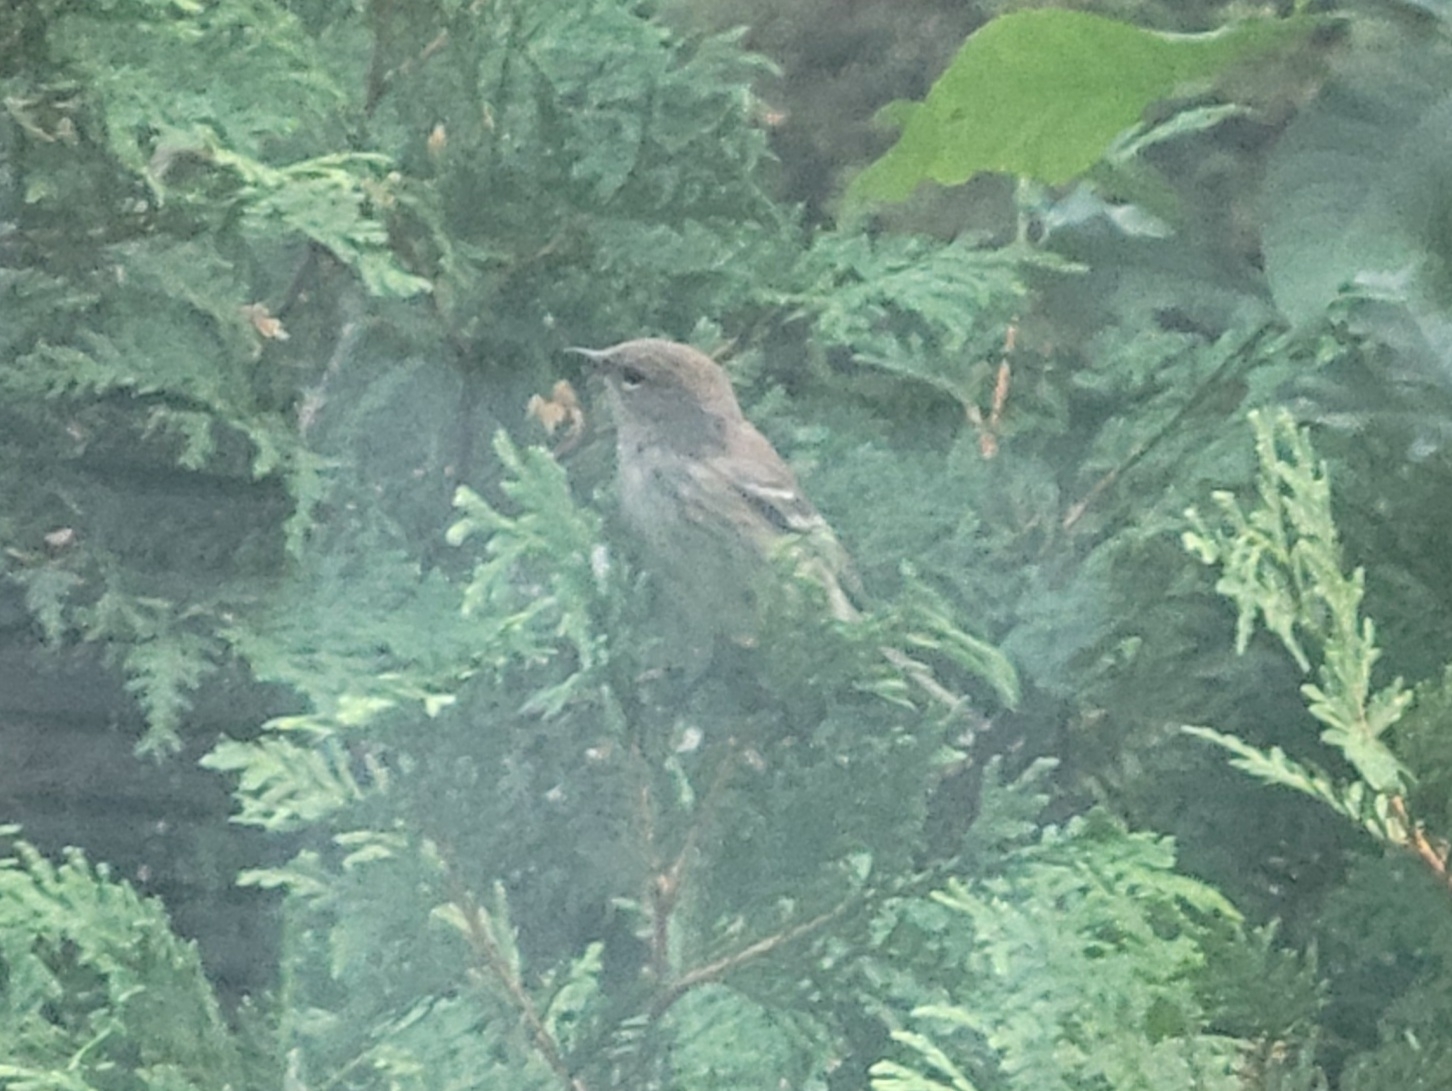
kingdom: Animalia
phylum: Chordata
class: Aves
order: Passeriformes
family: Parulidae
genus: Setophaga
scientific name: Setophaga coronata
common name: Myrtle warbler
